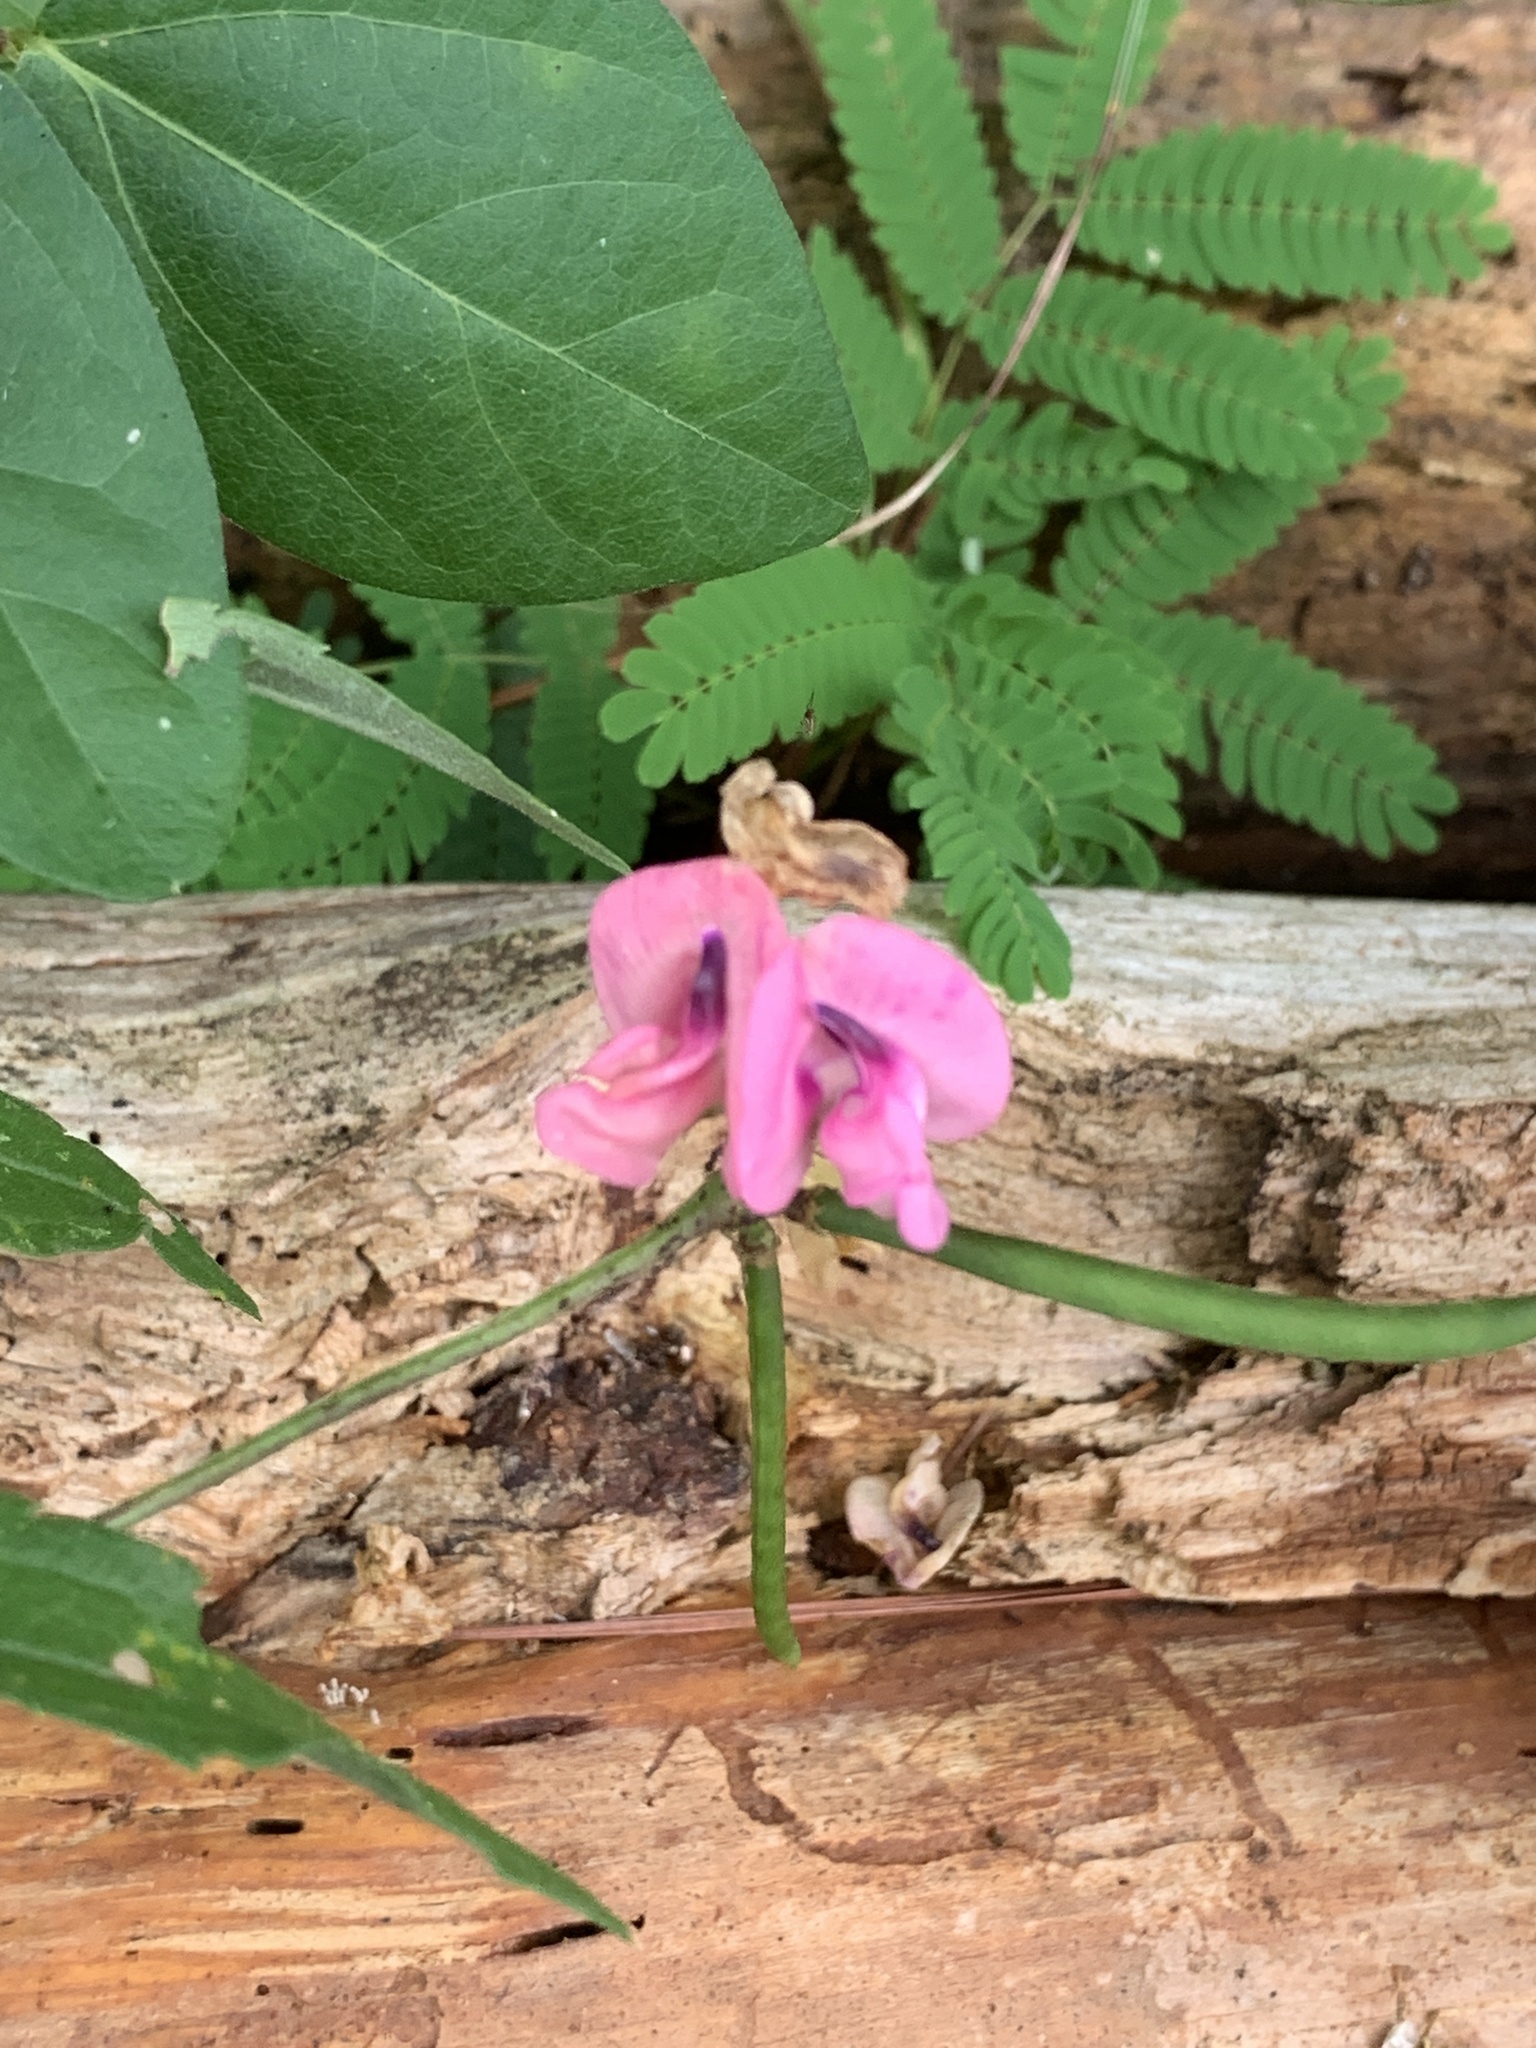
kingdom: Plantae
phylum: Tracheophyta
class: Magnoliopsida
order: Fabales
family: Fabaceae
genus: Strophostyles
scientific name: Strophostyles umbellata
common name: Perennial wild bean
